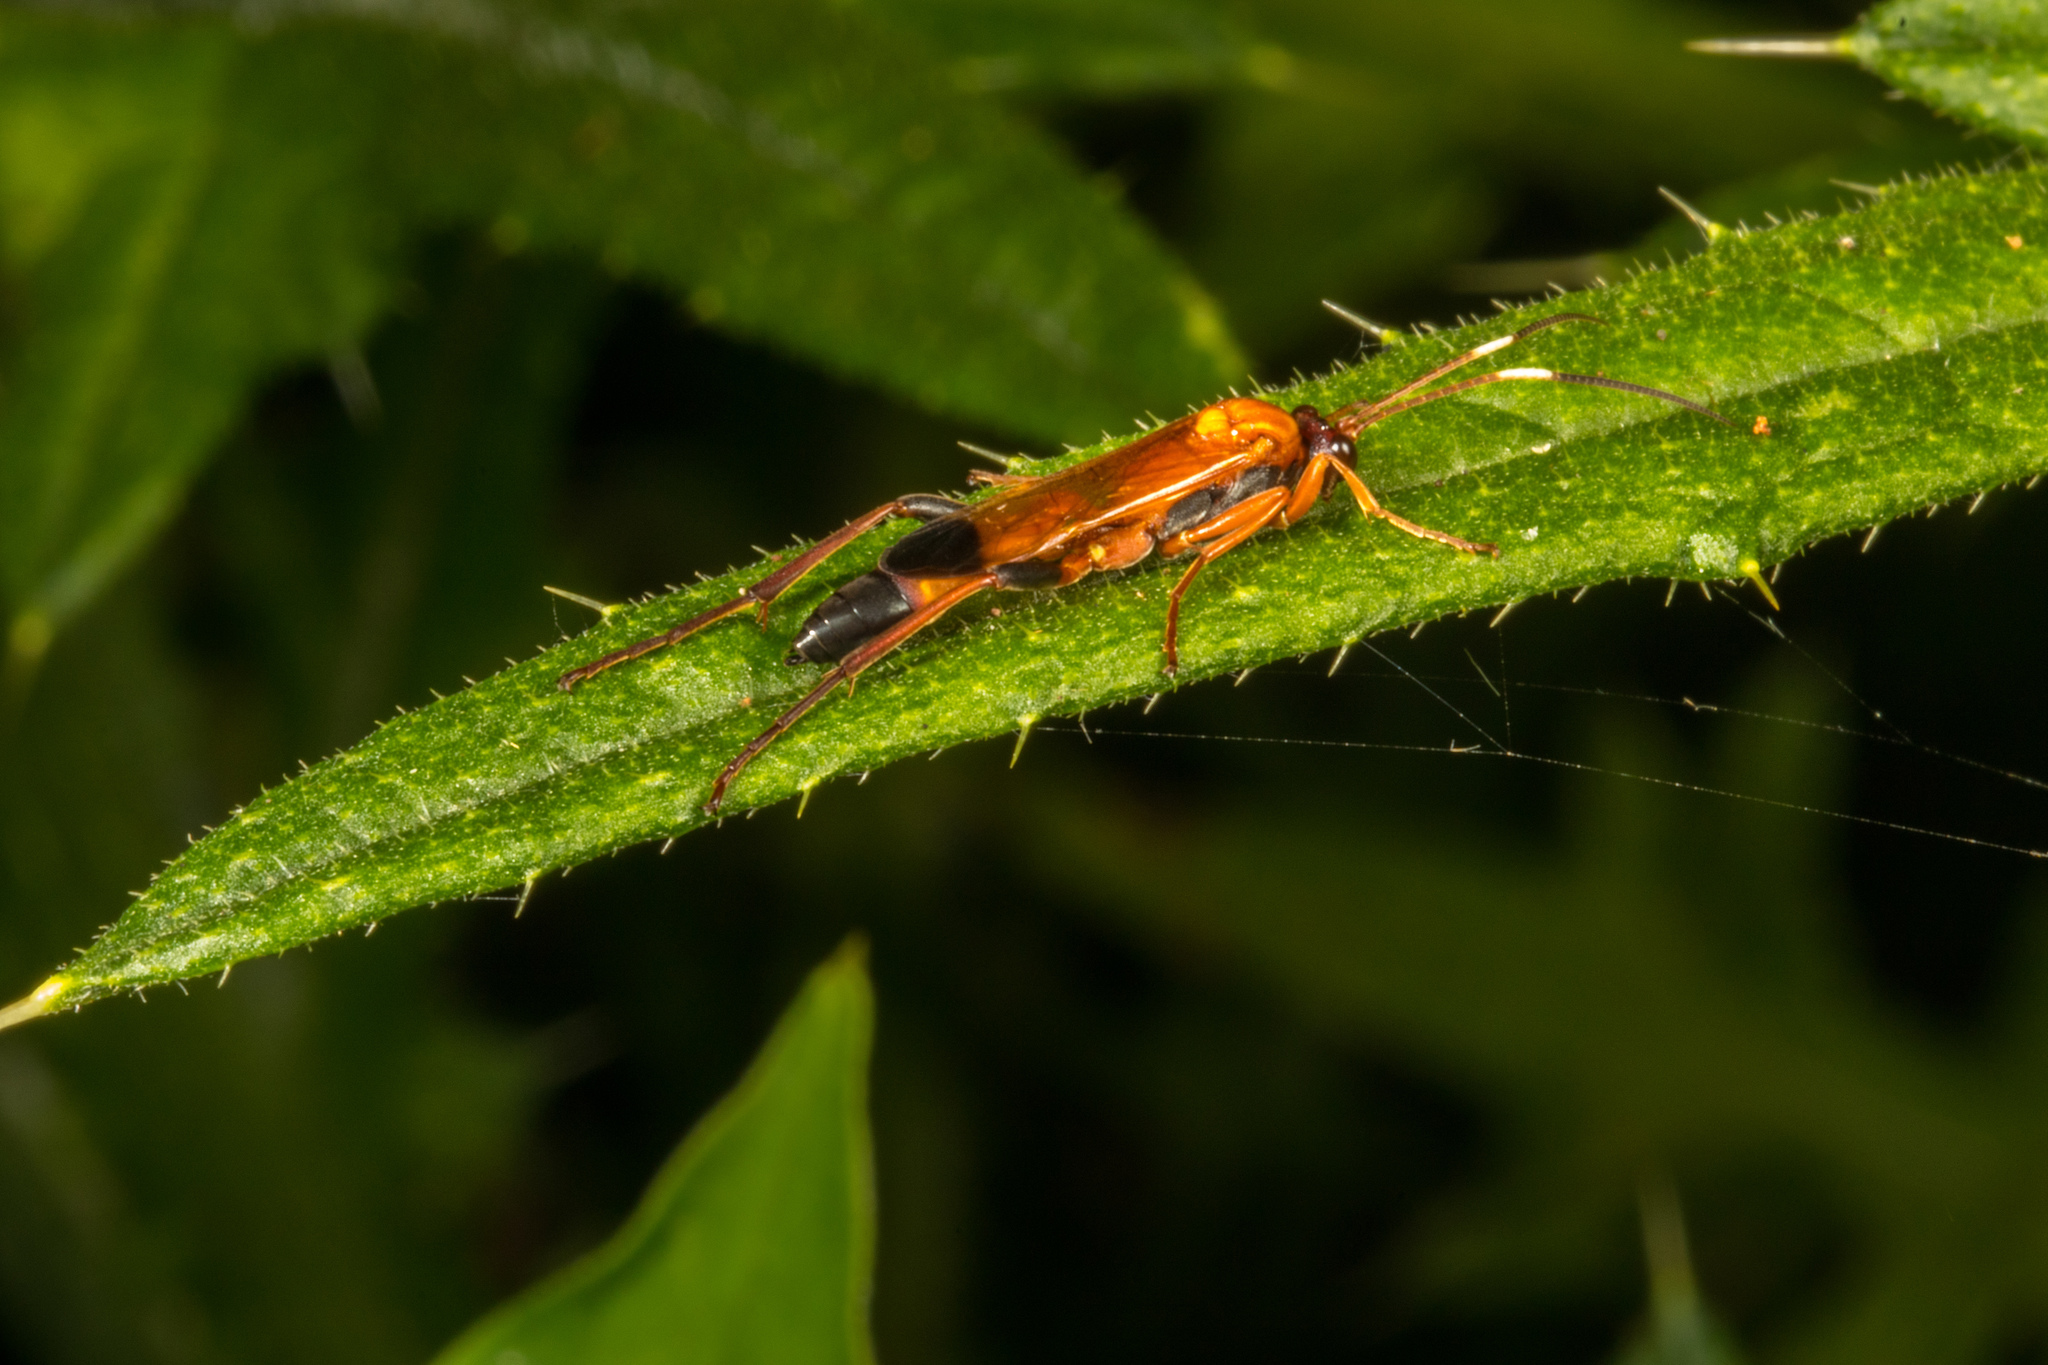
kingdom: Animalia
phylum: Arthropoda
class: Insecta
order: Hymenoptera
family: Ichneumonidae
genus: Ctenochares
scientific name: Ctenochares bicolorus
